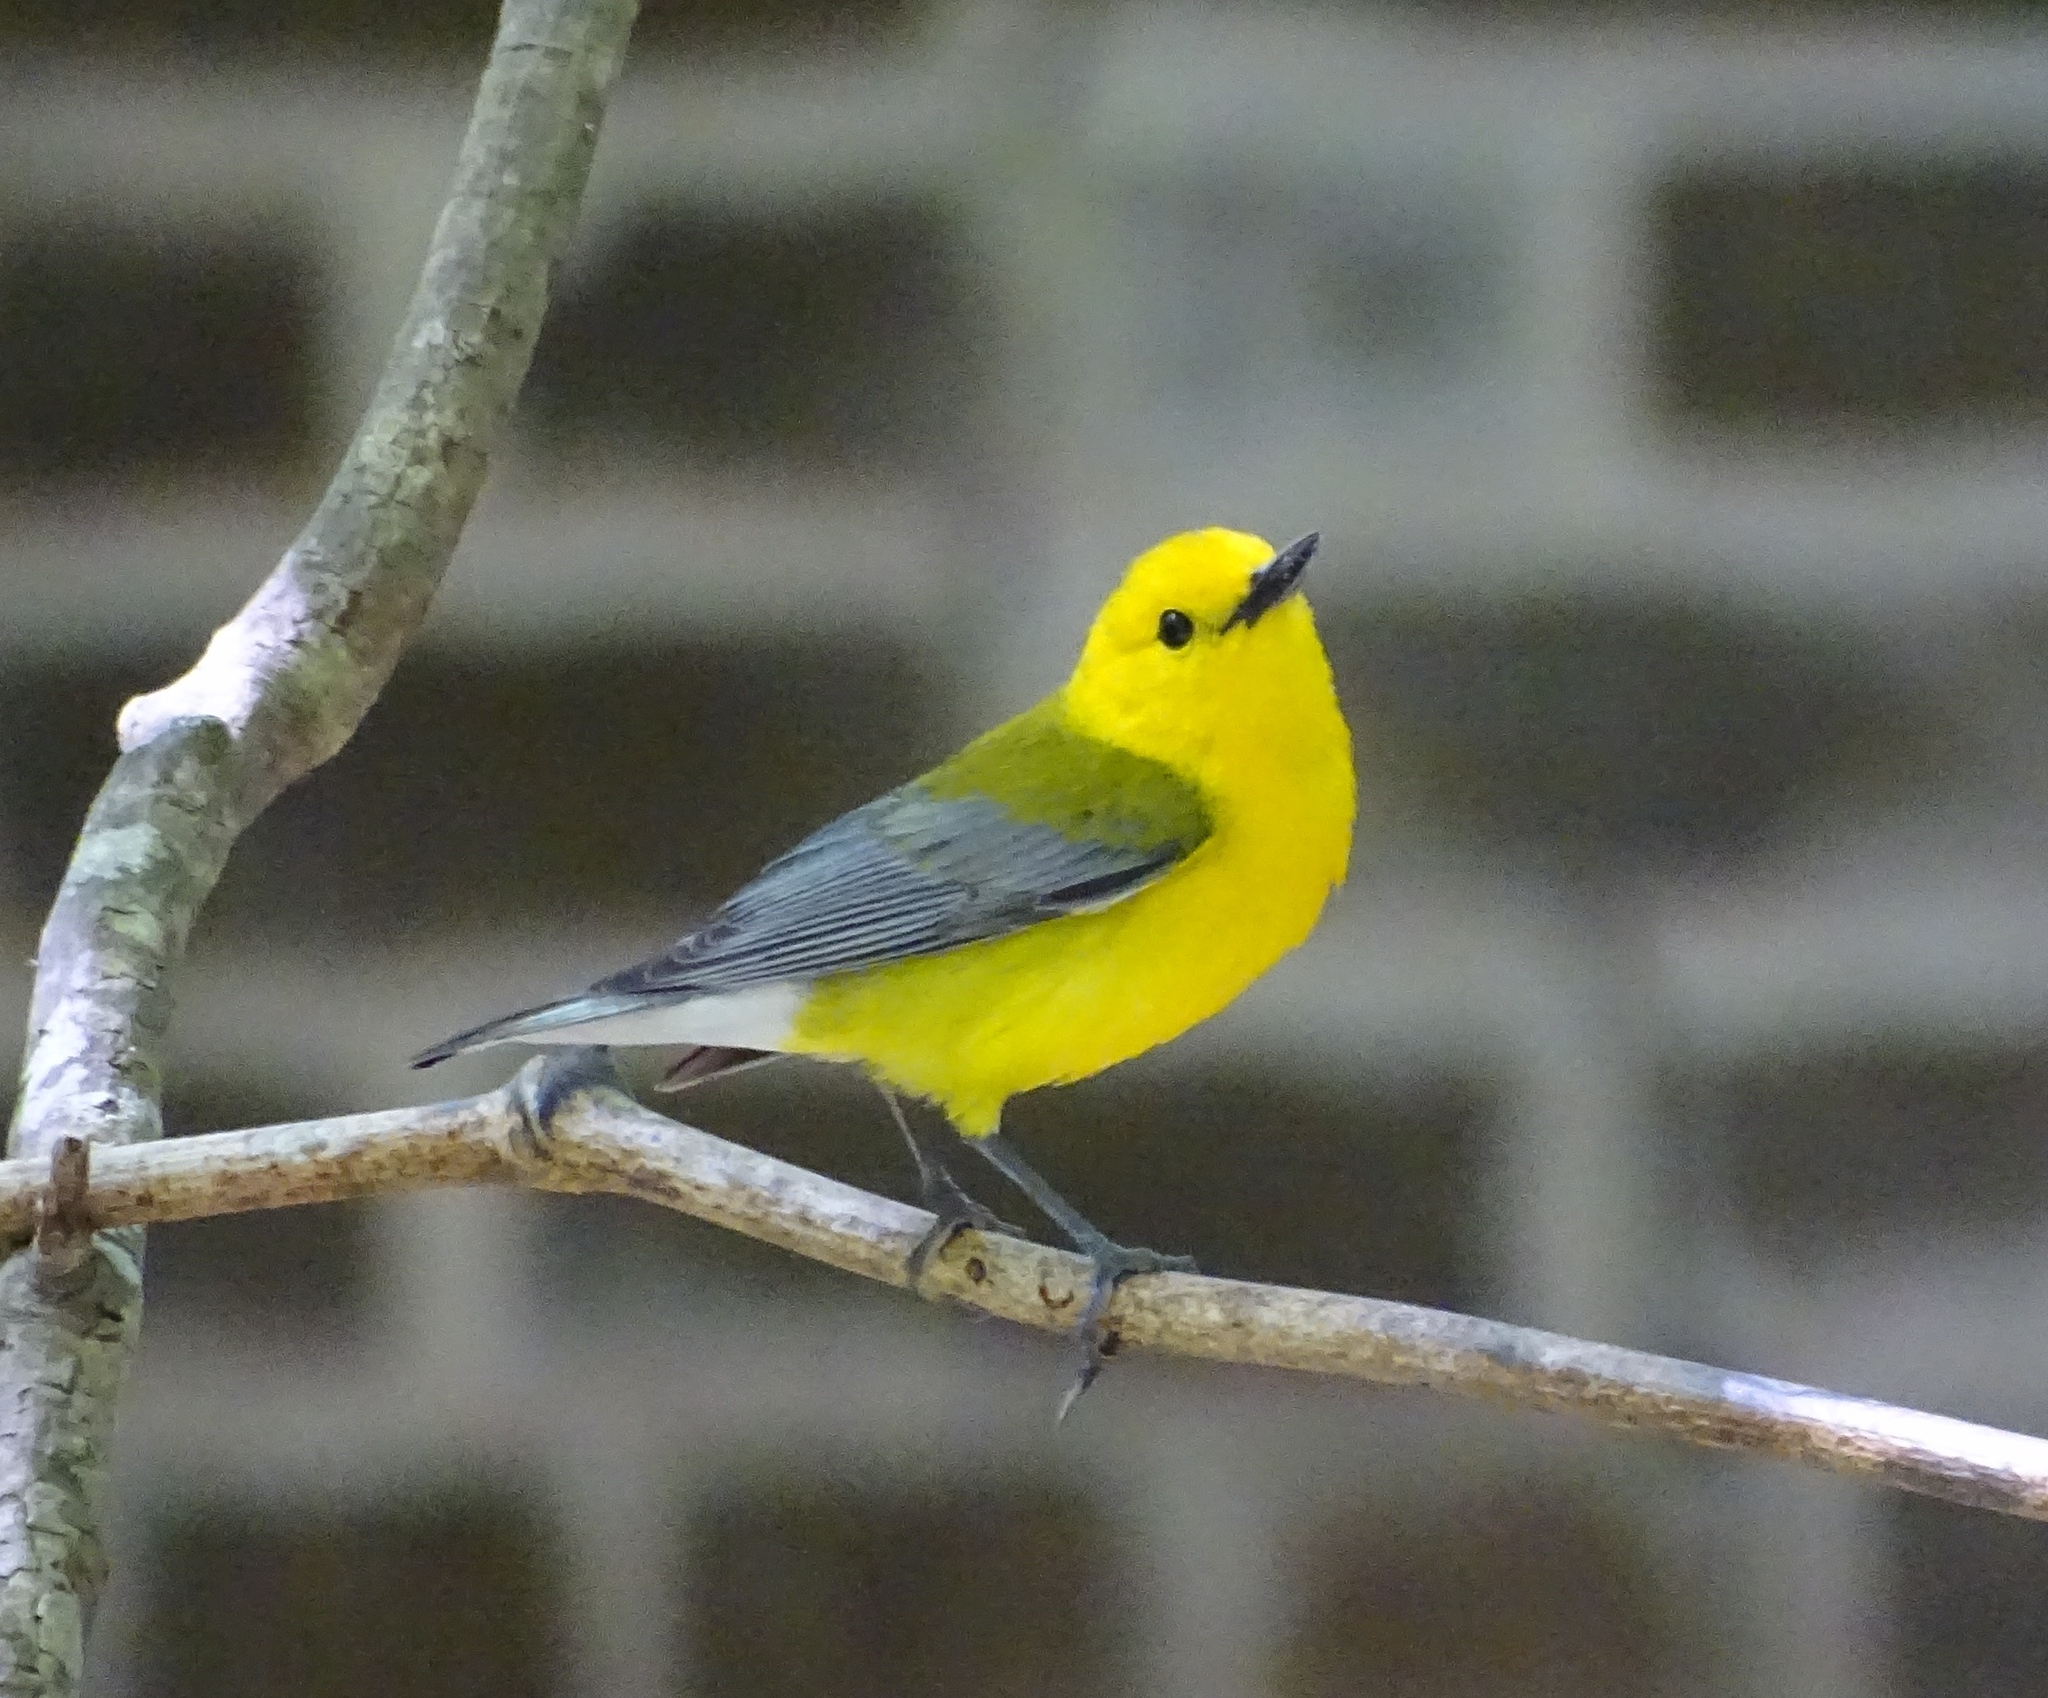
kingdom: Animalia
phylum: Chordata
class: Aves
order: Passeriformes
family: Parulidae
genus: Protonotaria
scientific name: Protonotaria citrea
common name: Prothonotary warbler
